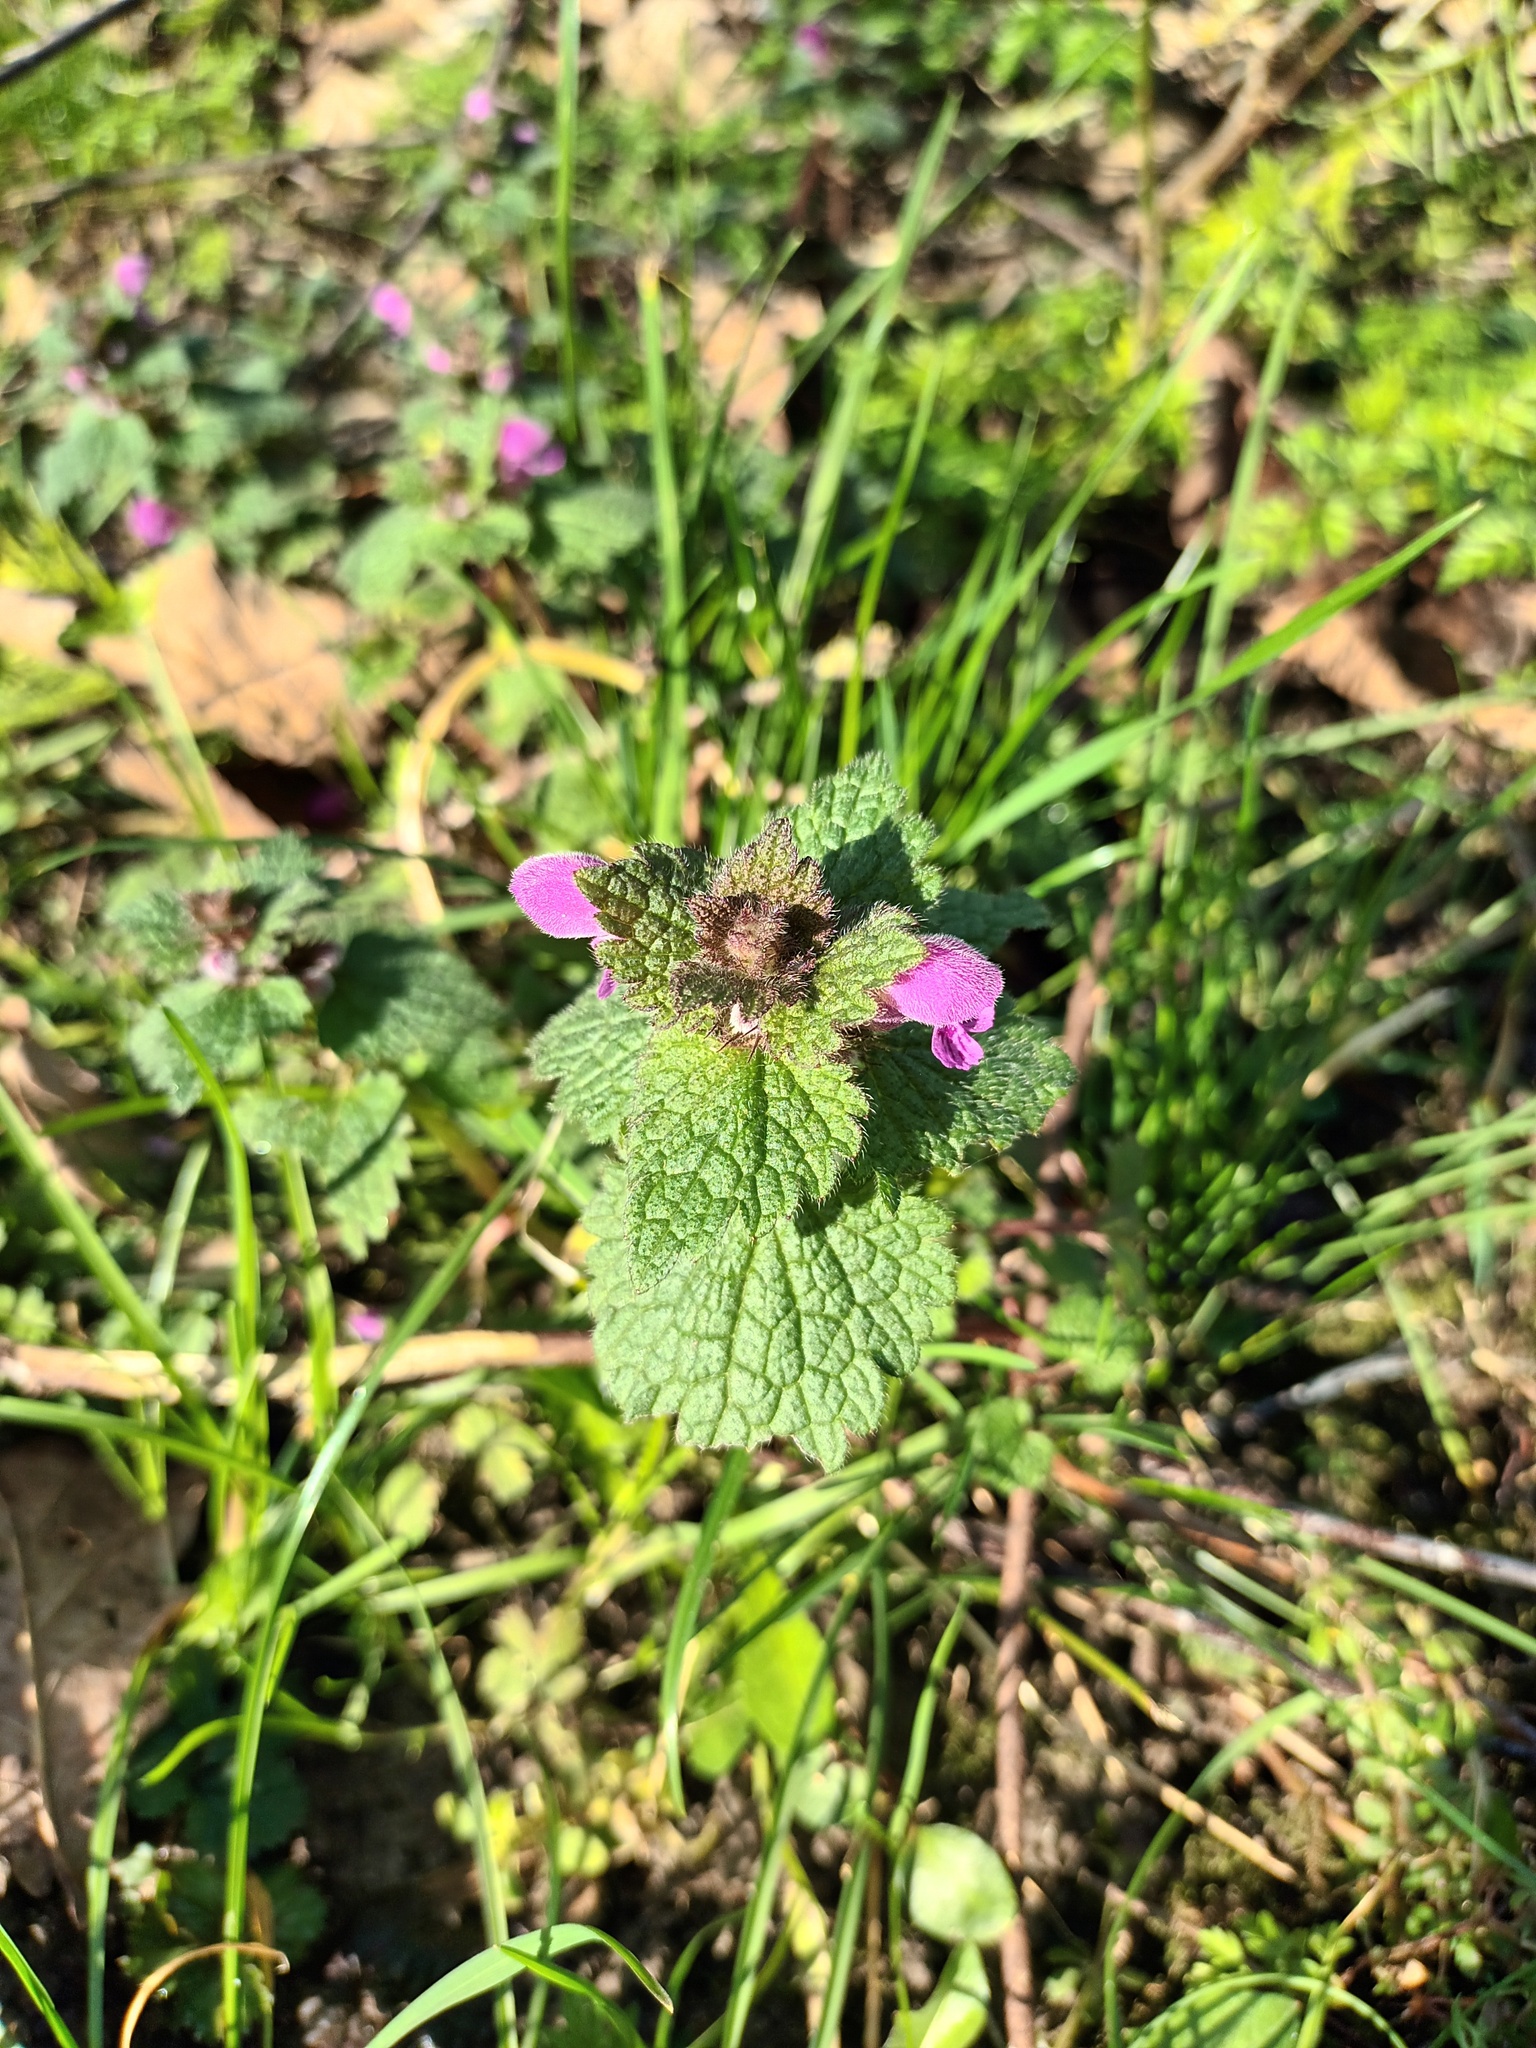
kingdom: Plantae
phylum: Tracheophyta
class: Magnoliopsida
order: Lamiales
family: Lamiaceae
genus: Lamium
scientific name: Lamium purpureum
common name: Red dead-nettle
